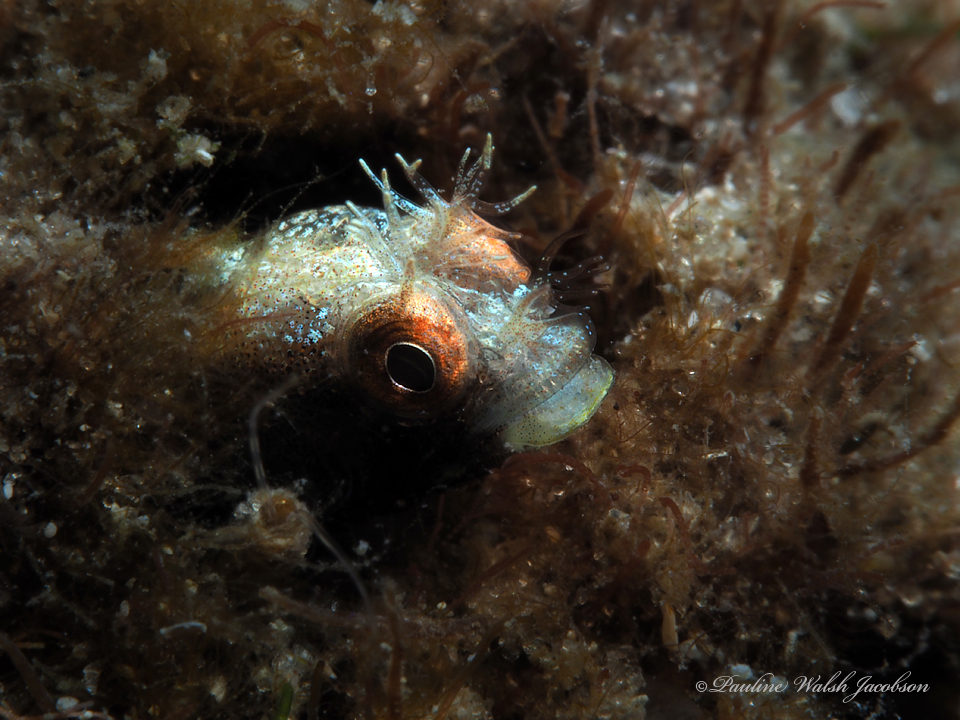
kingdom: Animalia
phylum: Chordata
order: Perciformes
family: Chaenopsidae
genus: Acanthemblemaria
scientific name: Acanthemblemaria aspera
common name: Roughhead blenny
